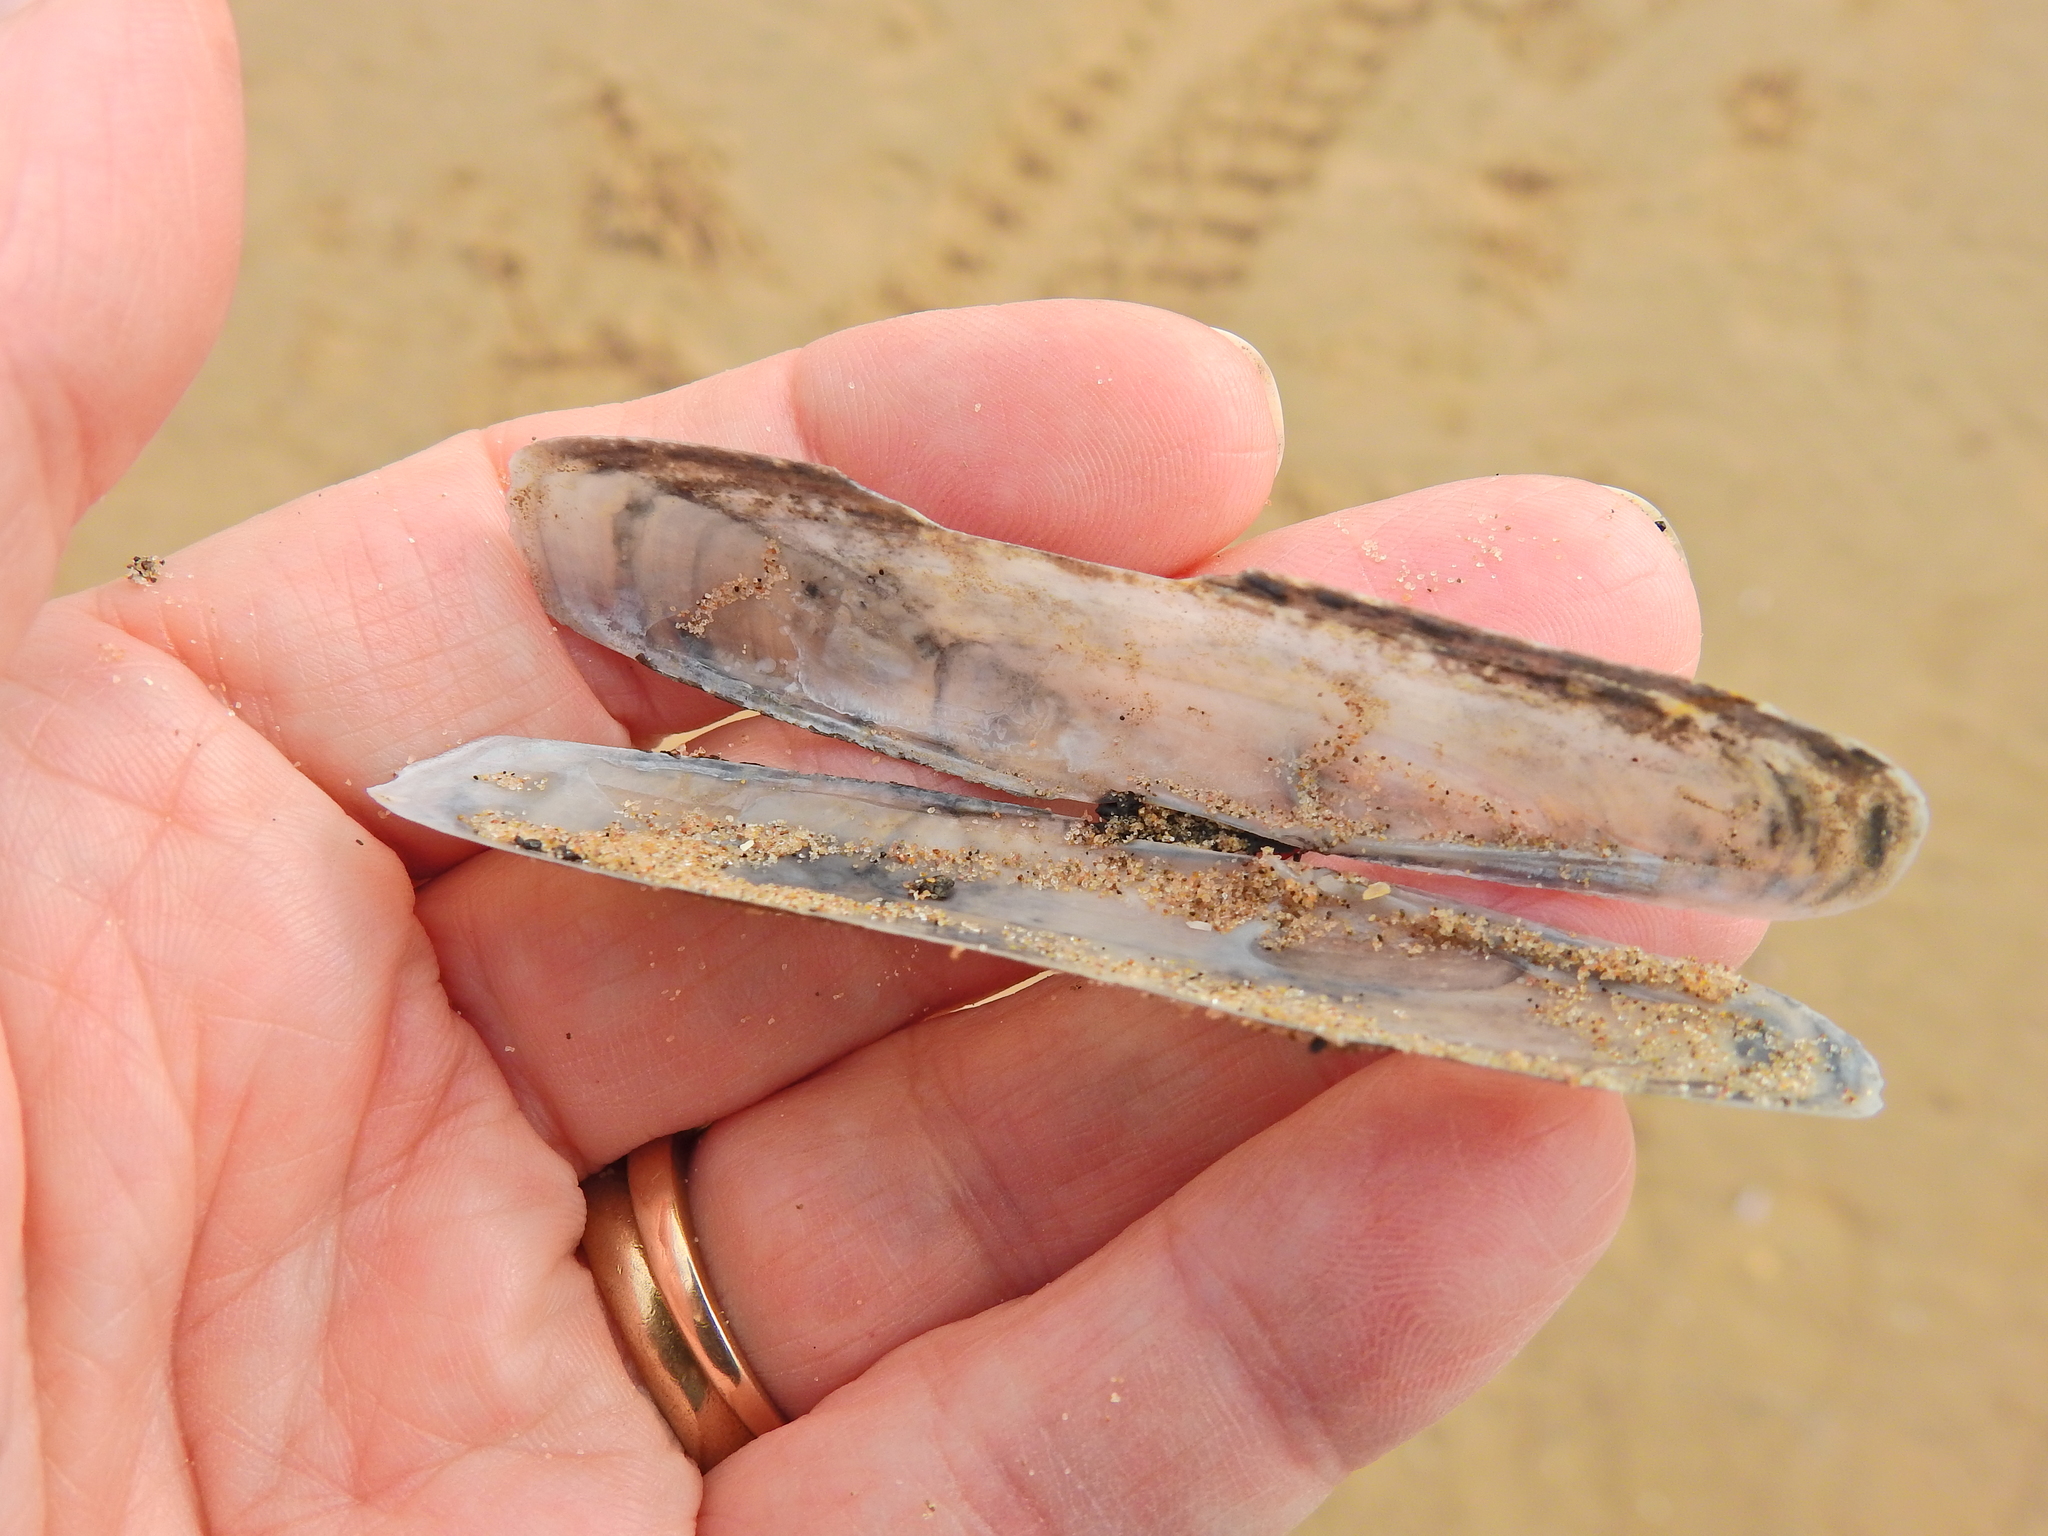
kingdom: Animalia
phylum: Mollusca
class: Bivalvia
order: Adapedonta
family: Pharidae
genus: Pharus
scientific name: Pharus legumen
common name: Bean razor clam
